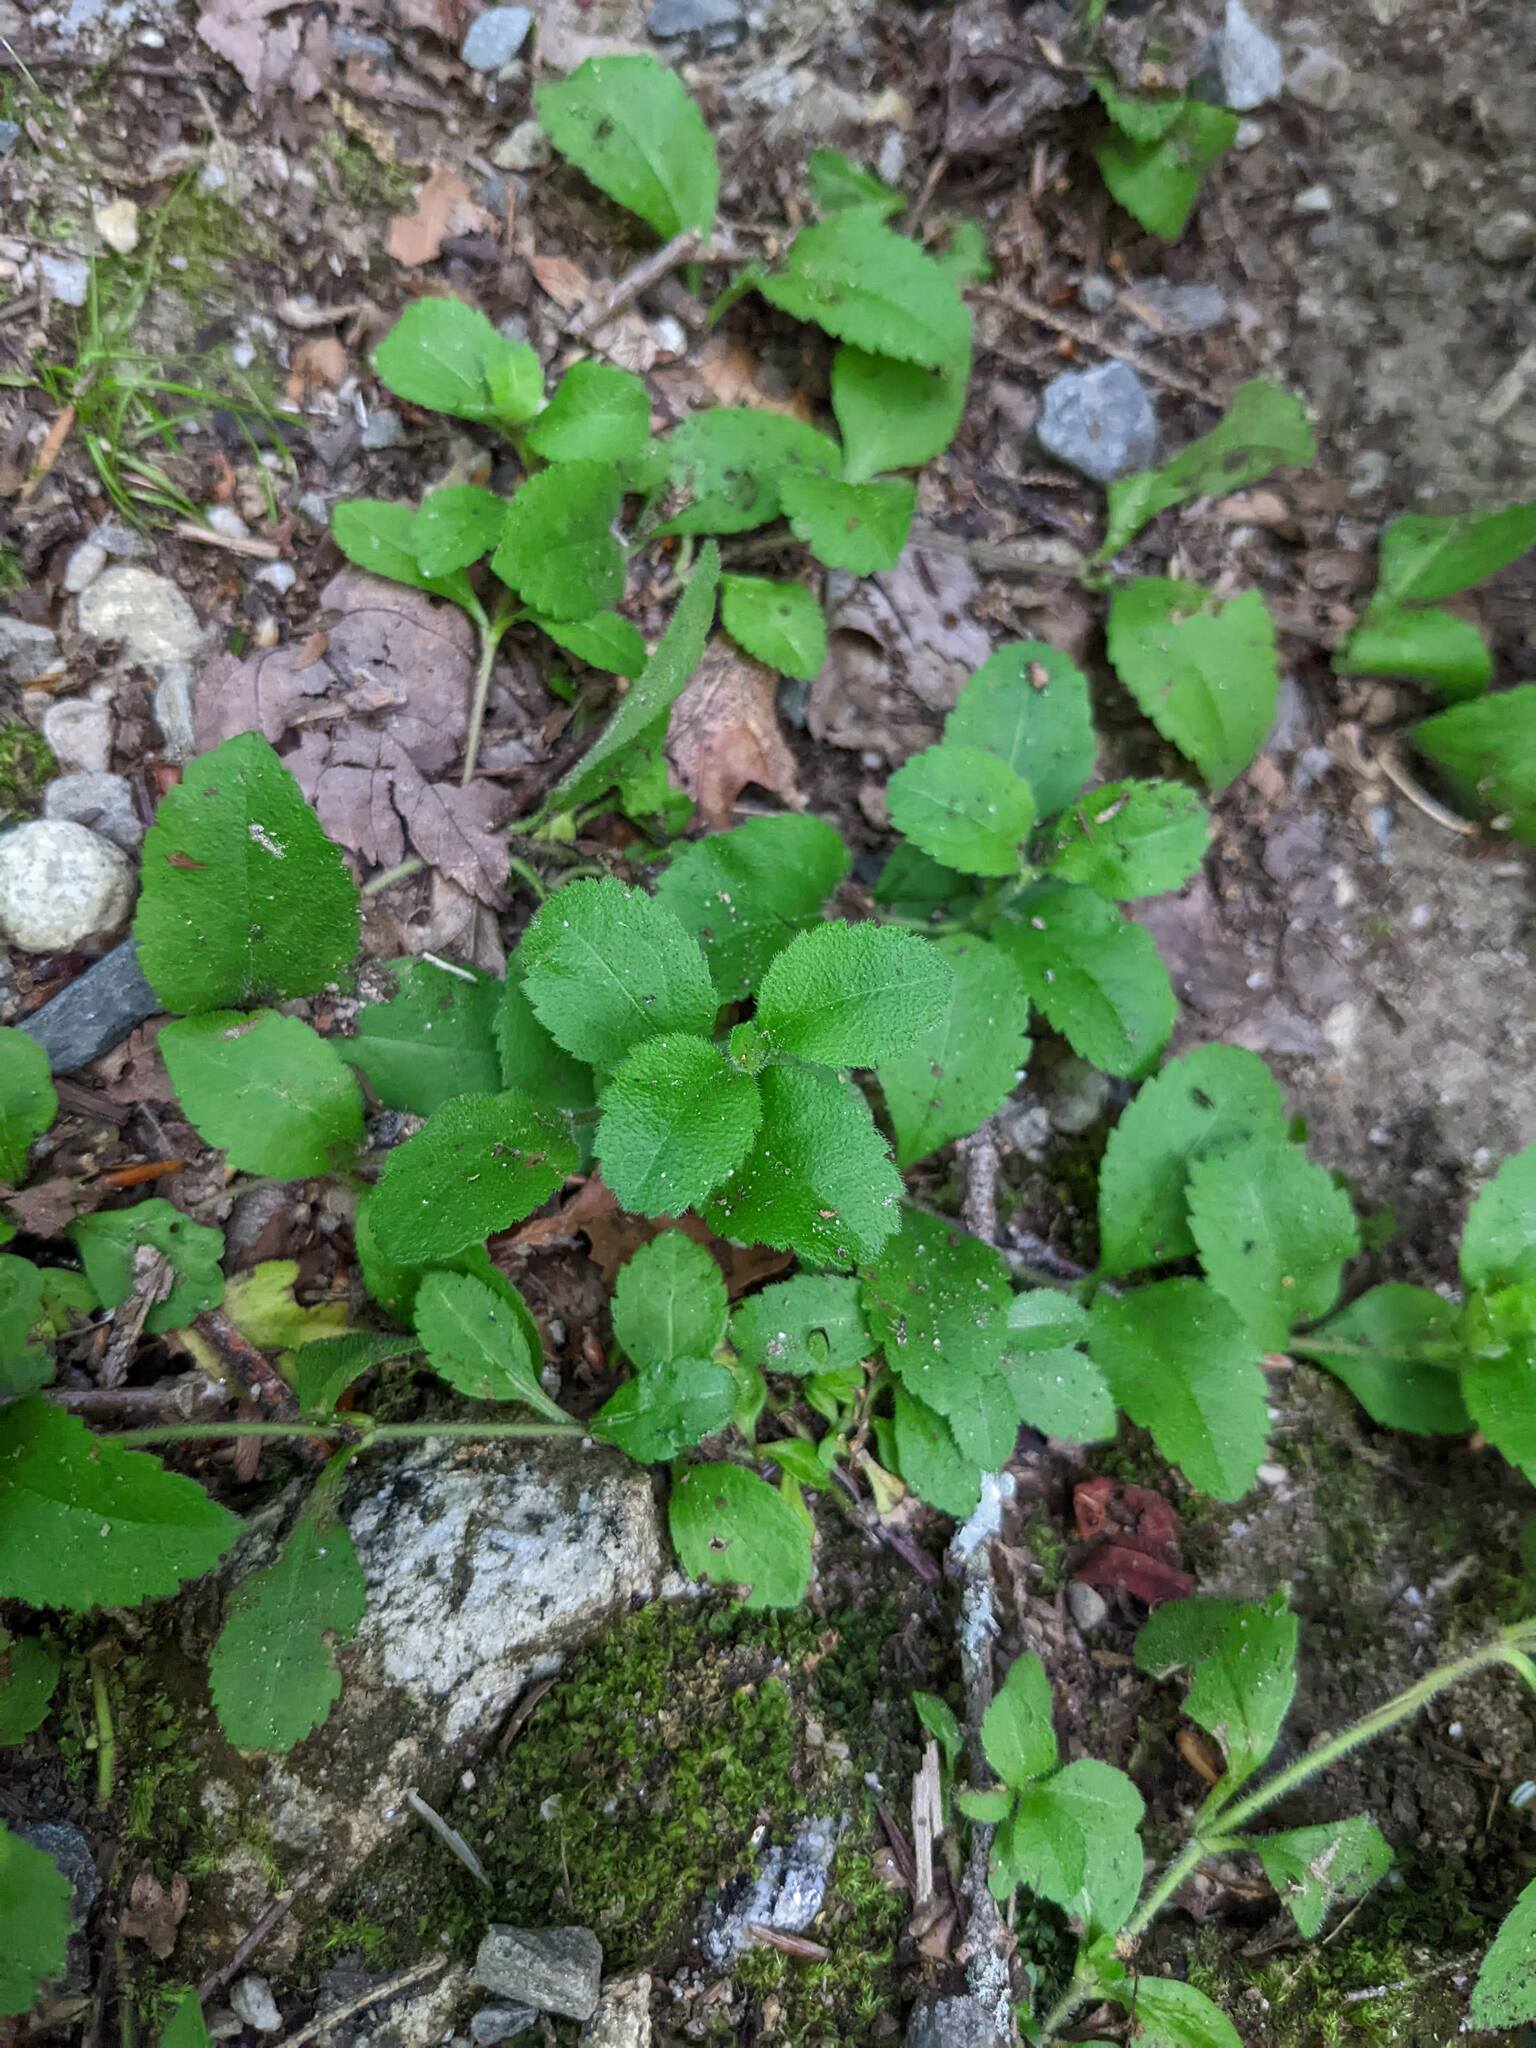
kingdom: Plantae
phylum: Tracheophyta
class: Magnoliopsida
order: Lamiales
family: Plantaginaceae
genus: Veronica
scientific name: Veronica officinalis
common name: Common speedwell
